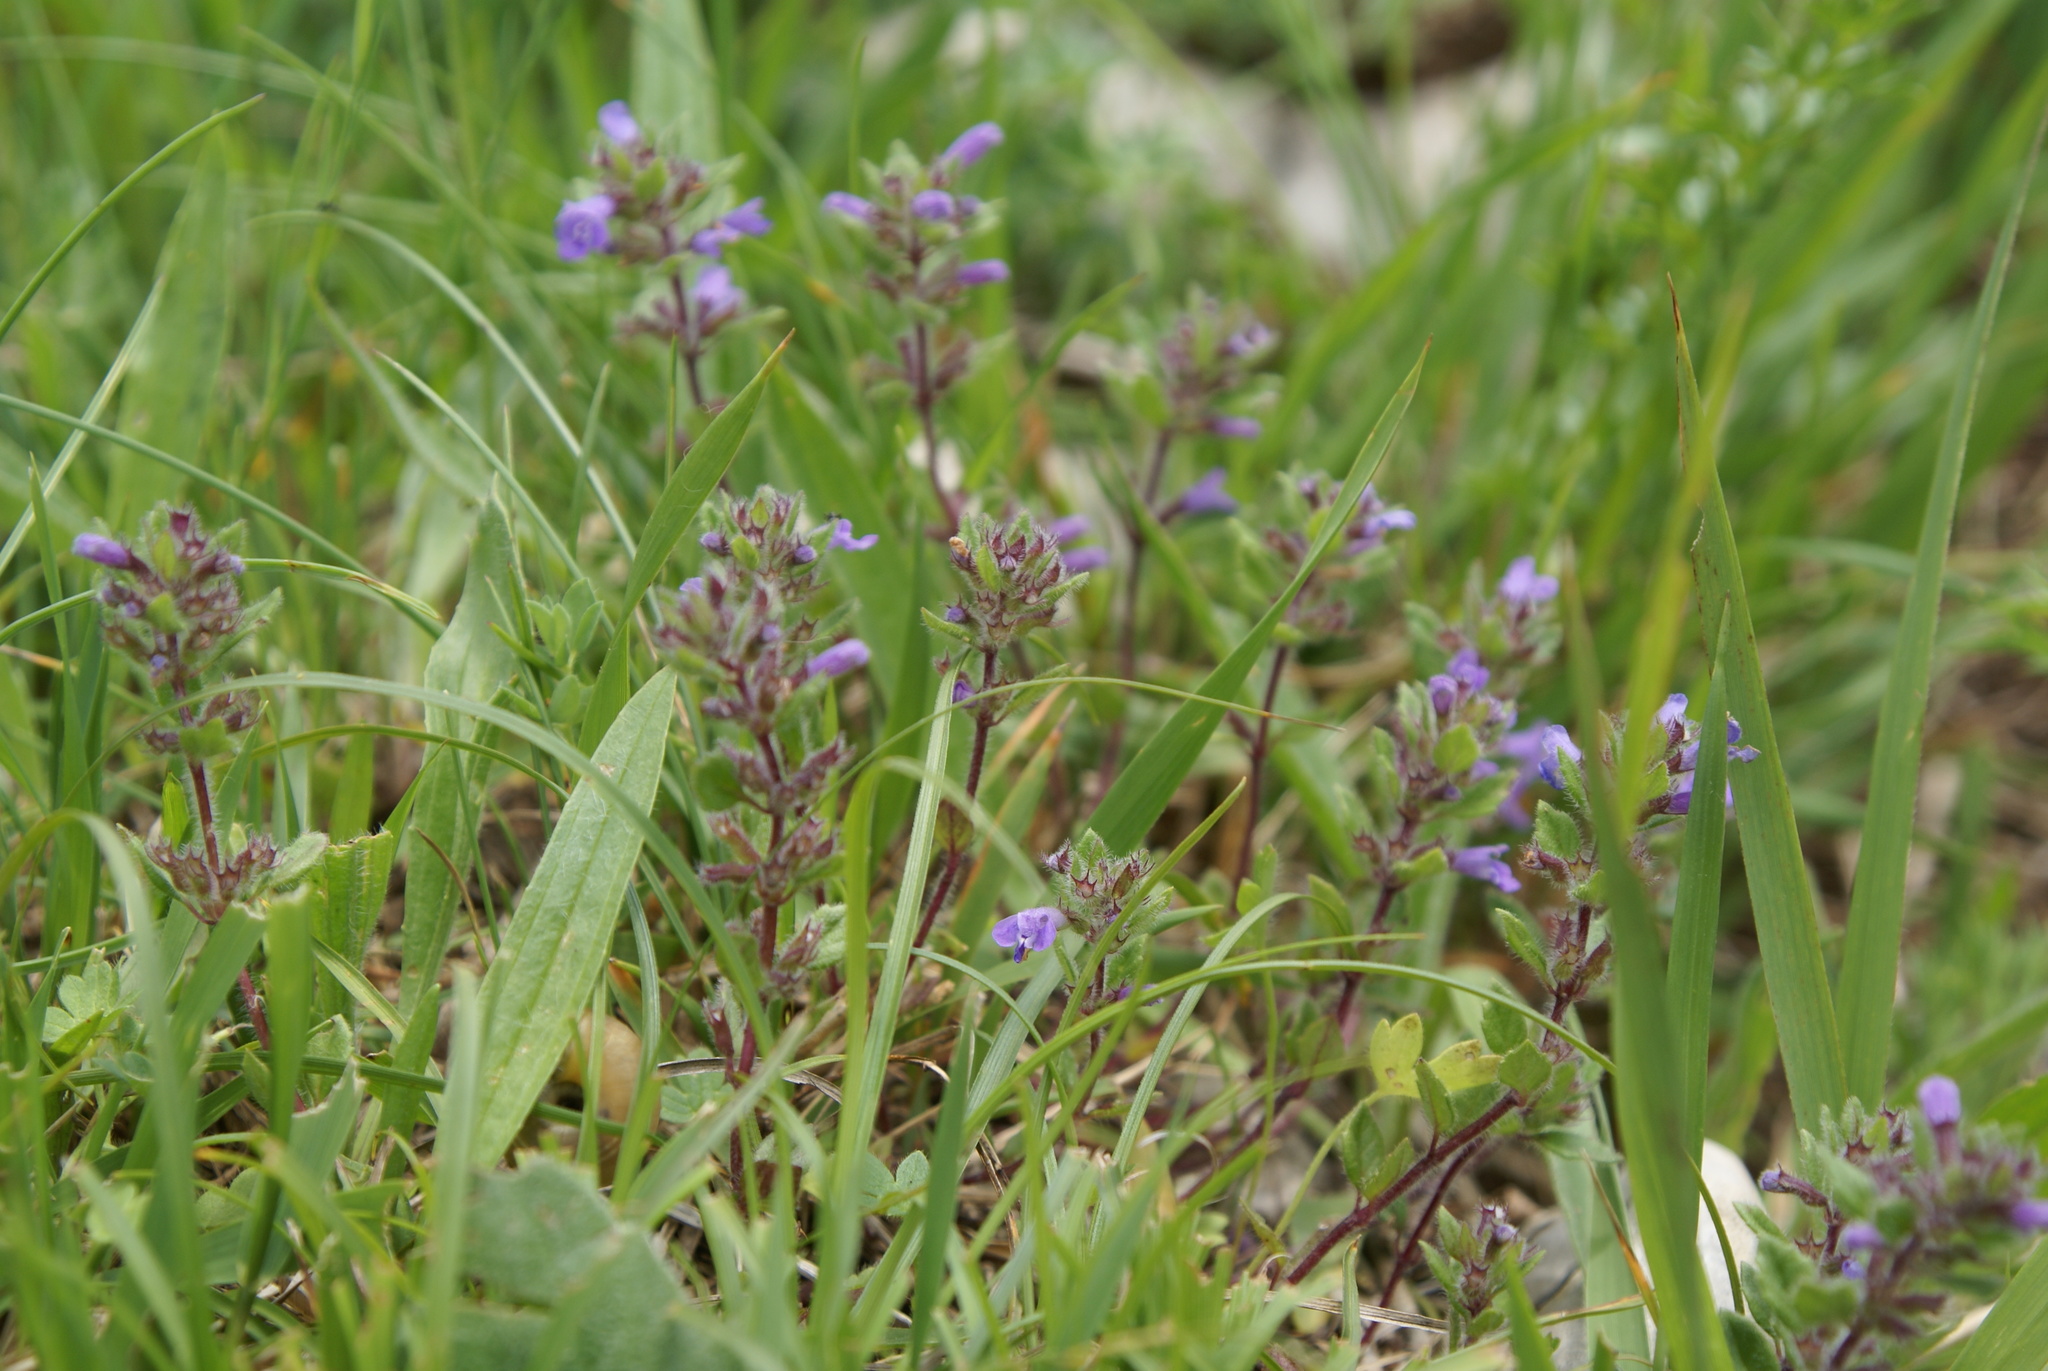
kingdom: Plantae
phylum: Tracheophyta
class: Magnoliopsida
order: Lamiales
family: Lamiaceae
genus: Clinopodium
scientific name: Clinopodium acinos
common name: Basil thyme
